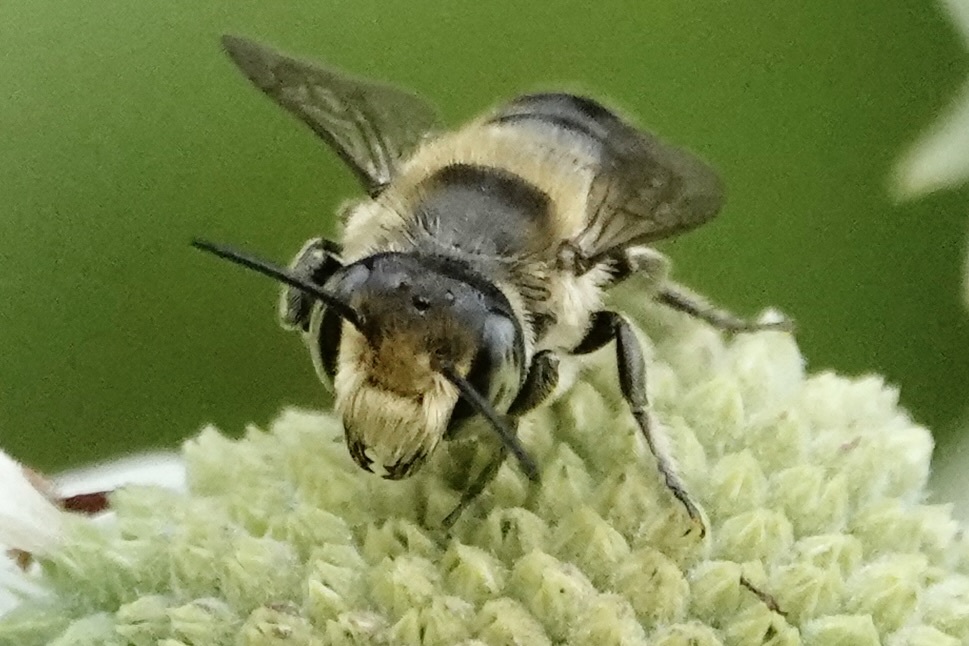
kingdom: Animalia
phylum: Arthropoda
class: Insecta
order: Hymenoptera
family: Megachilidae
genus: Megachile
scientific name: Megachile mendica
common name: Flat-tailed leafcutter
